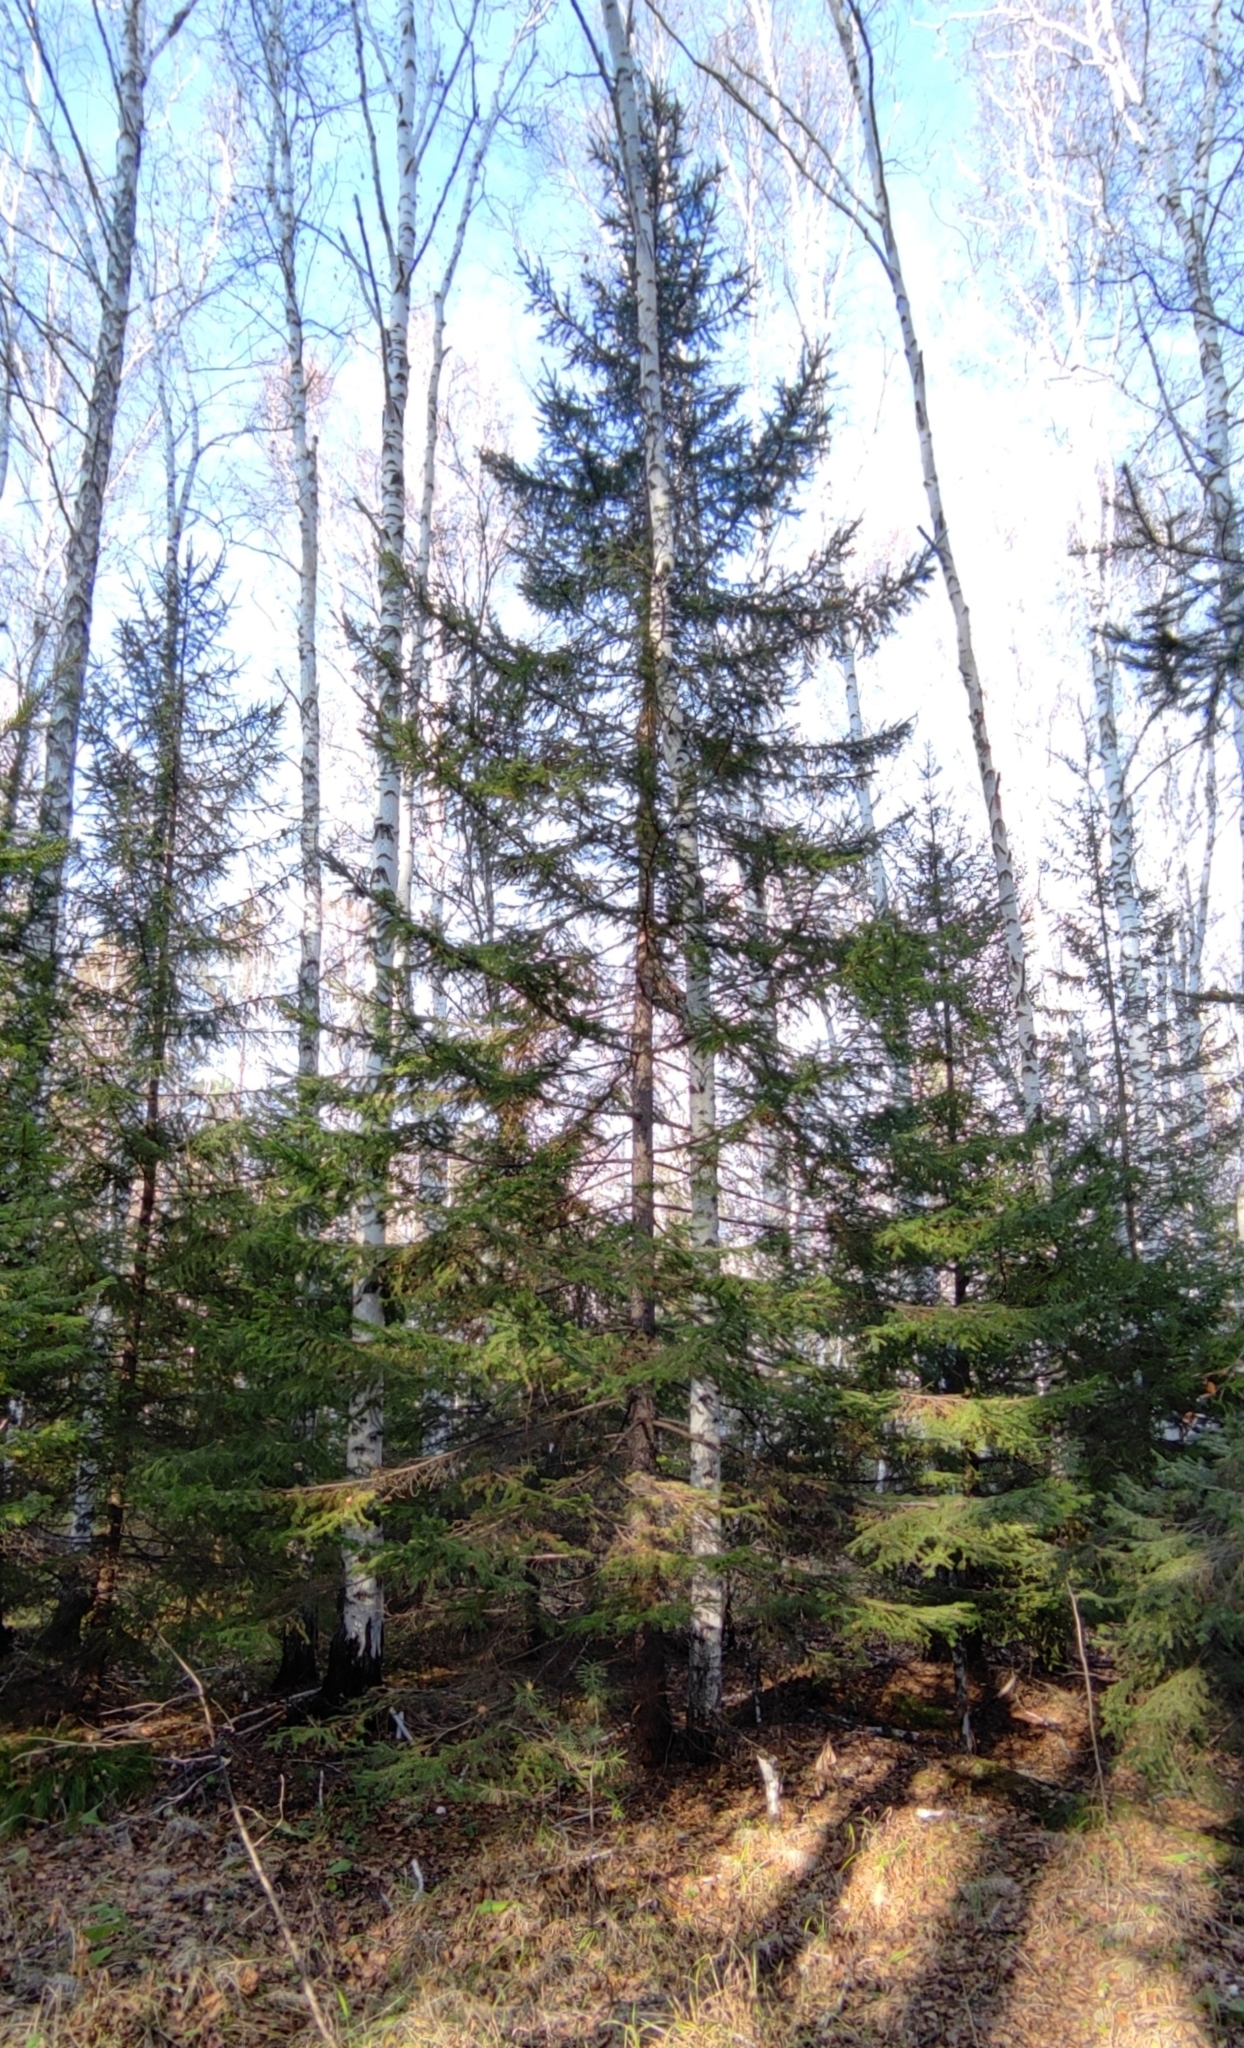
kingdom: Plantae
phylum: Tracheophyta
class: Pinopsida
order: Pinales
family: Pinaceae
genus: Picea
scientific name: Picea obovata
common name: Siberian spruce
